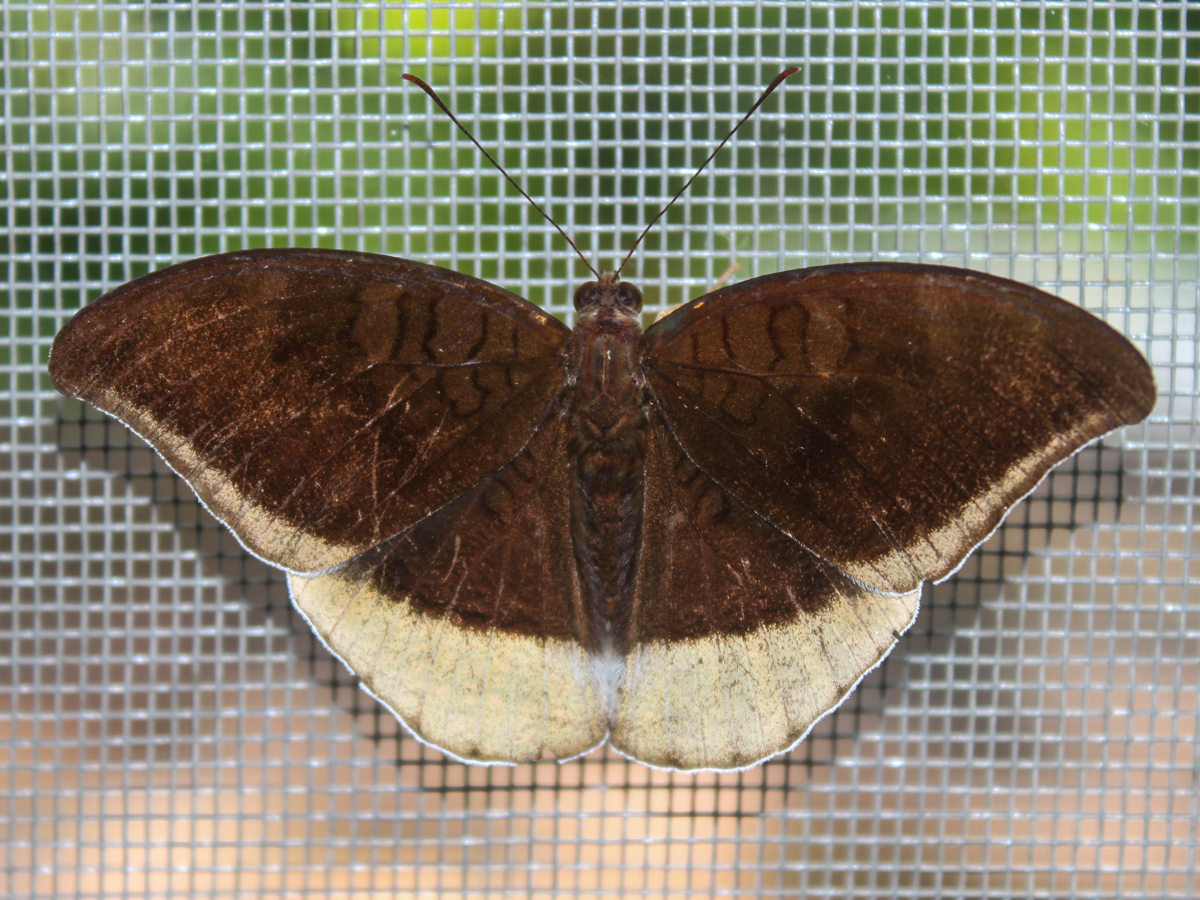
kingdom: Animalia
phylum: Arthropoda
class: Insecta
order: Lepidoptera
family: Nymphalidae
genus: Tanaecia
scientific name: Tanaecia lepidea
